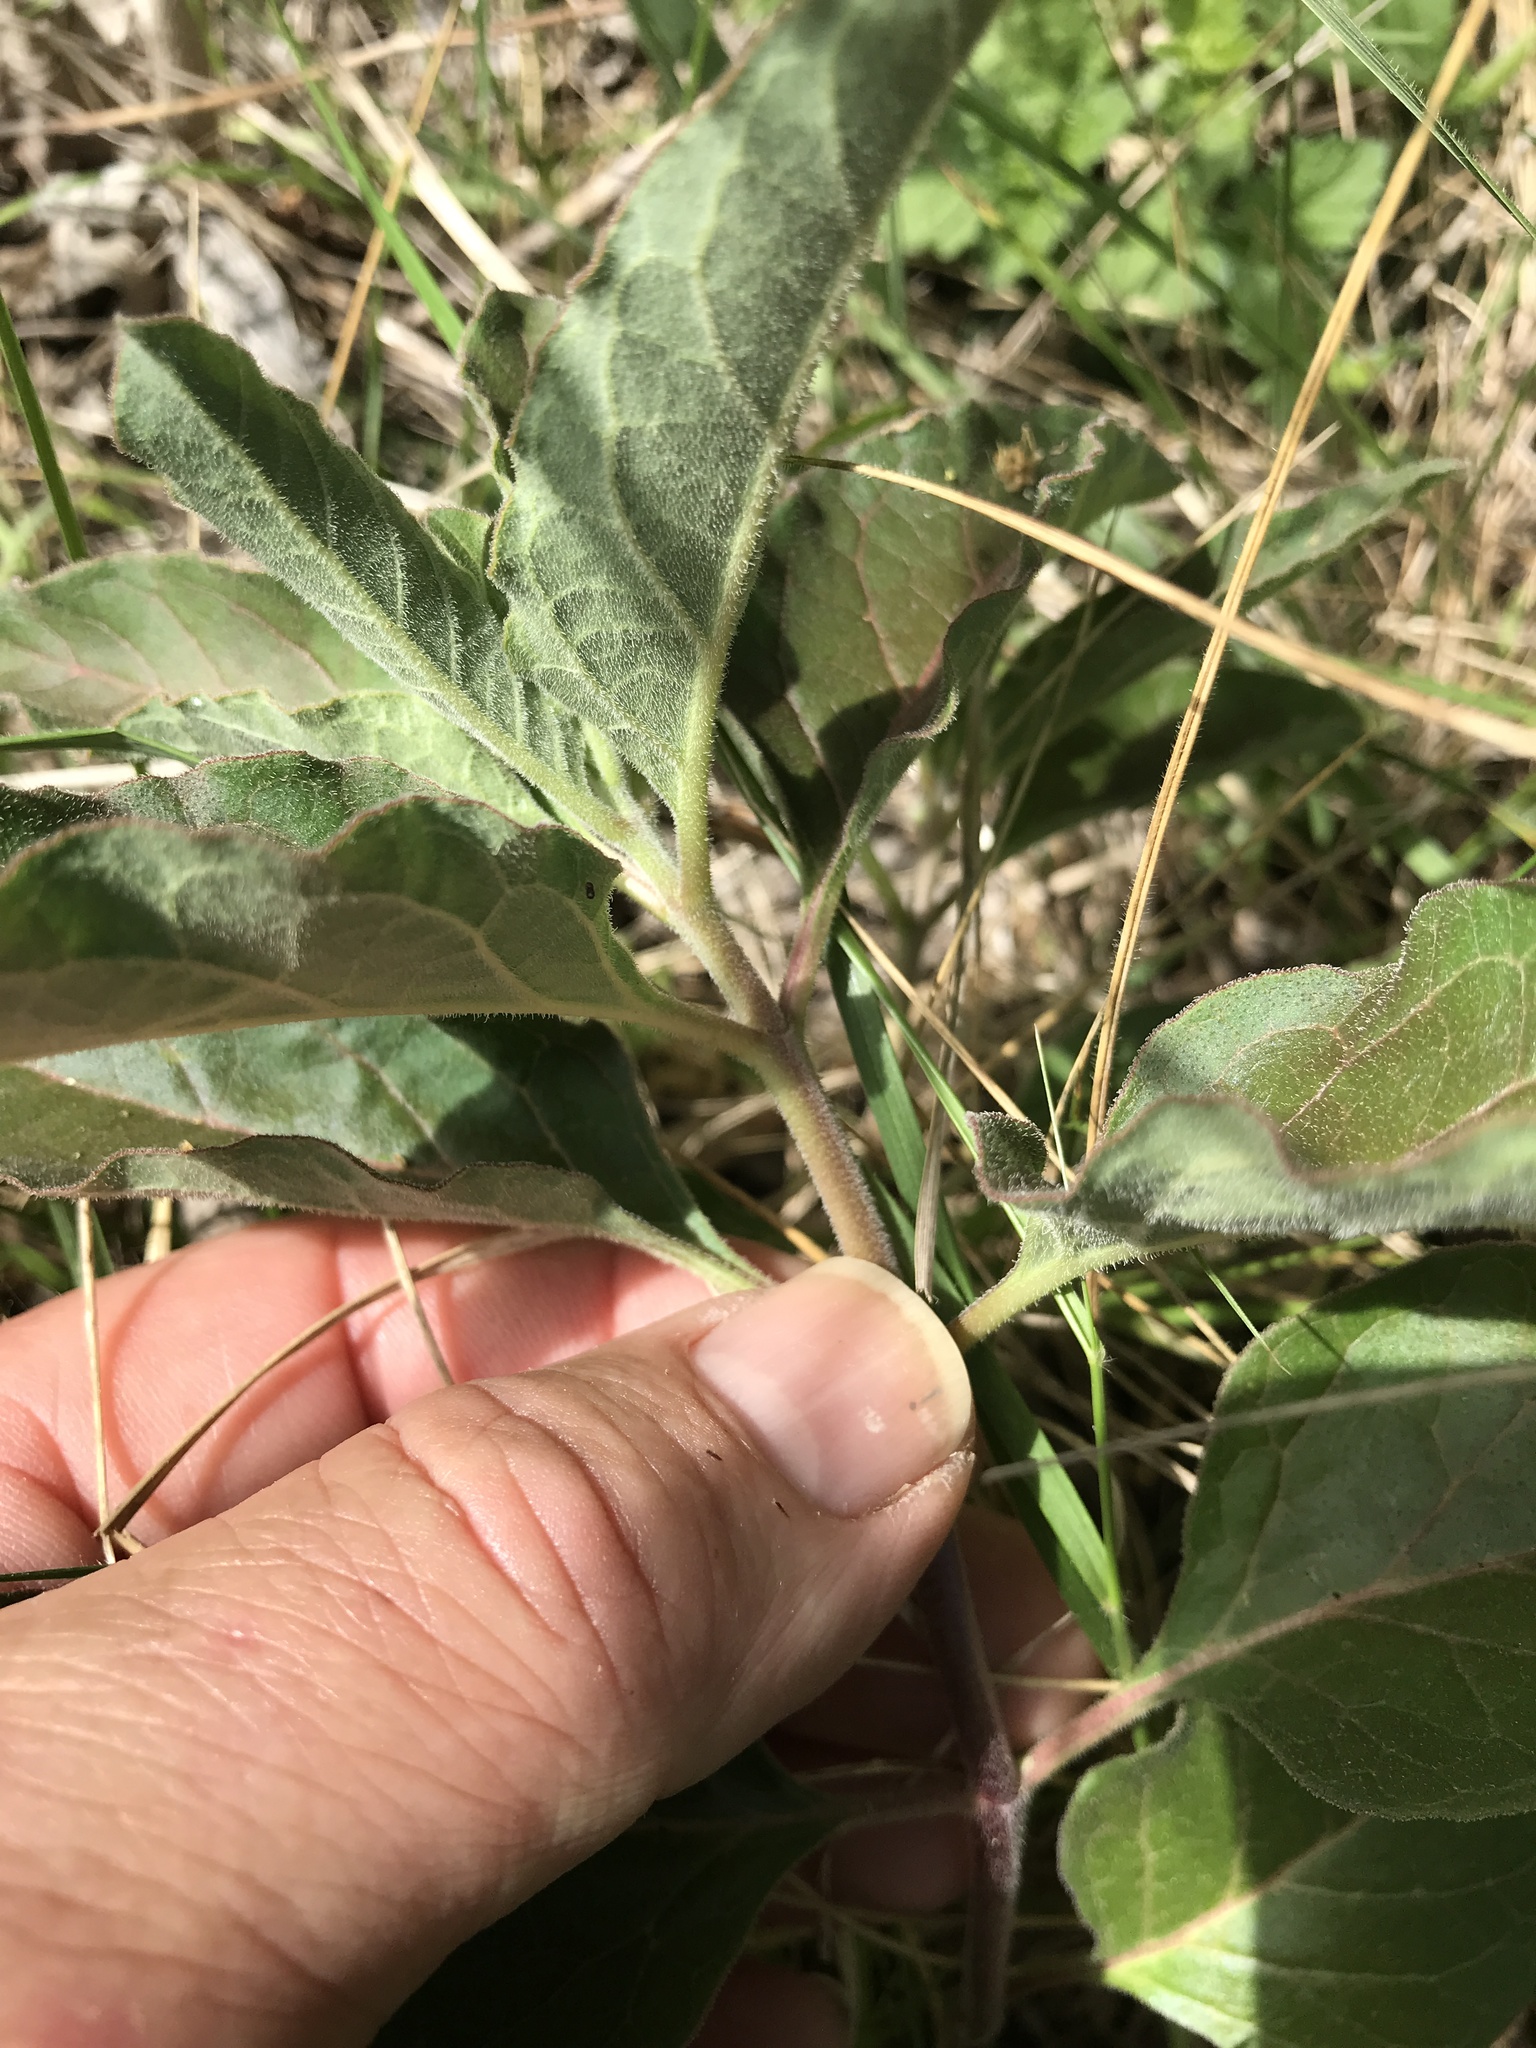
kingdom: Plantae
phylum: Tracheophyta
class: Magnoliopsida
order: Gentianales
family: Apocynaceae
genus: Asclepias
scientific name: Asclepias oenotheroides
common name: Zizotes milkweed
